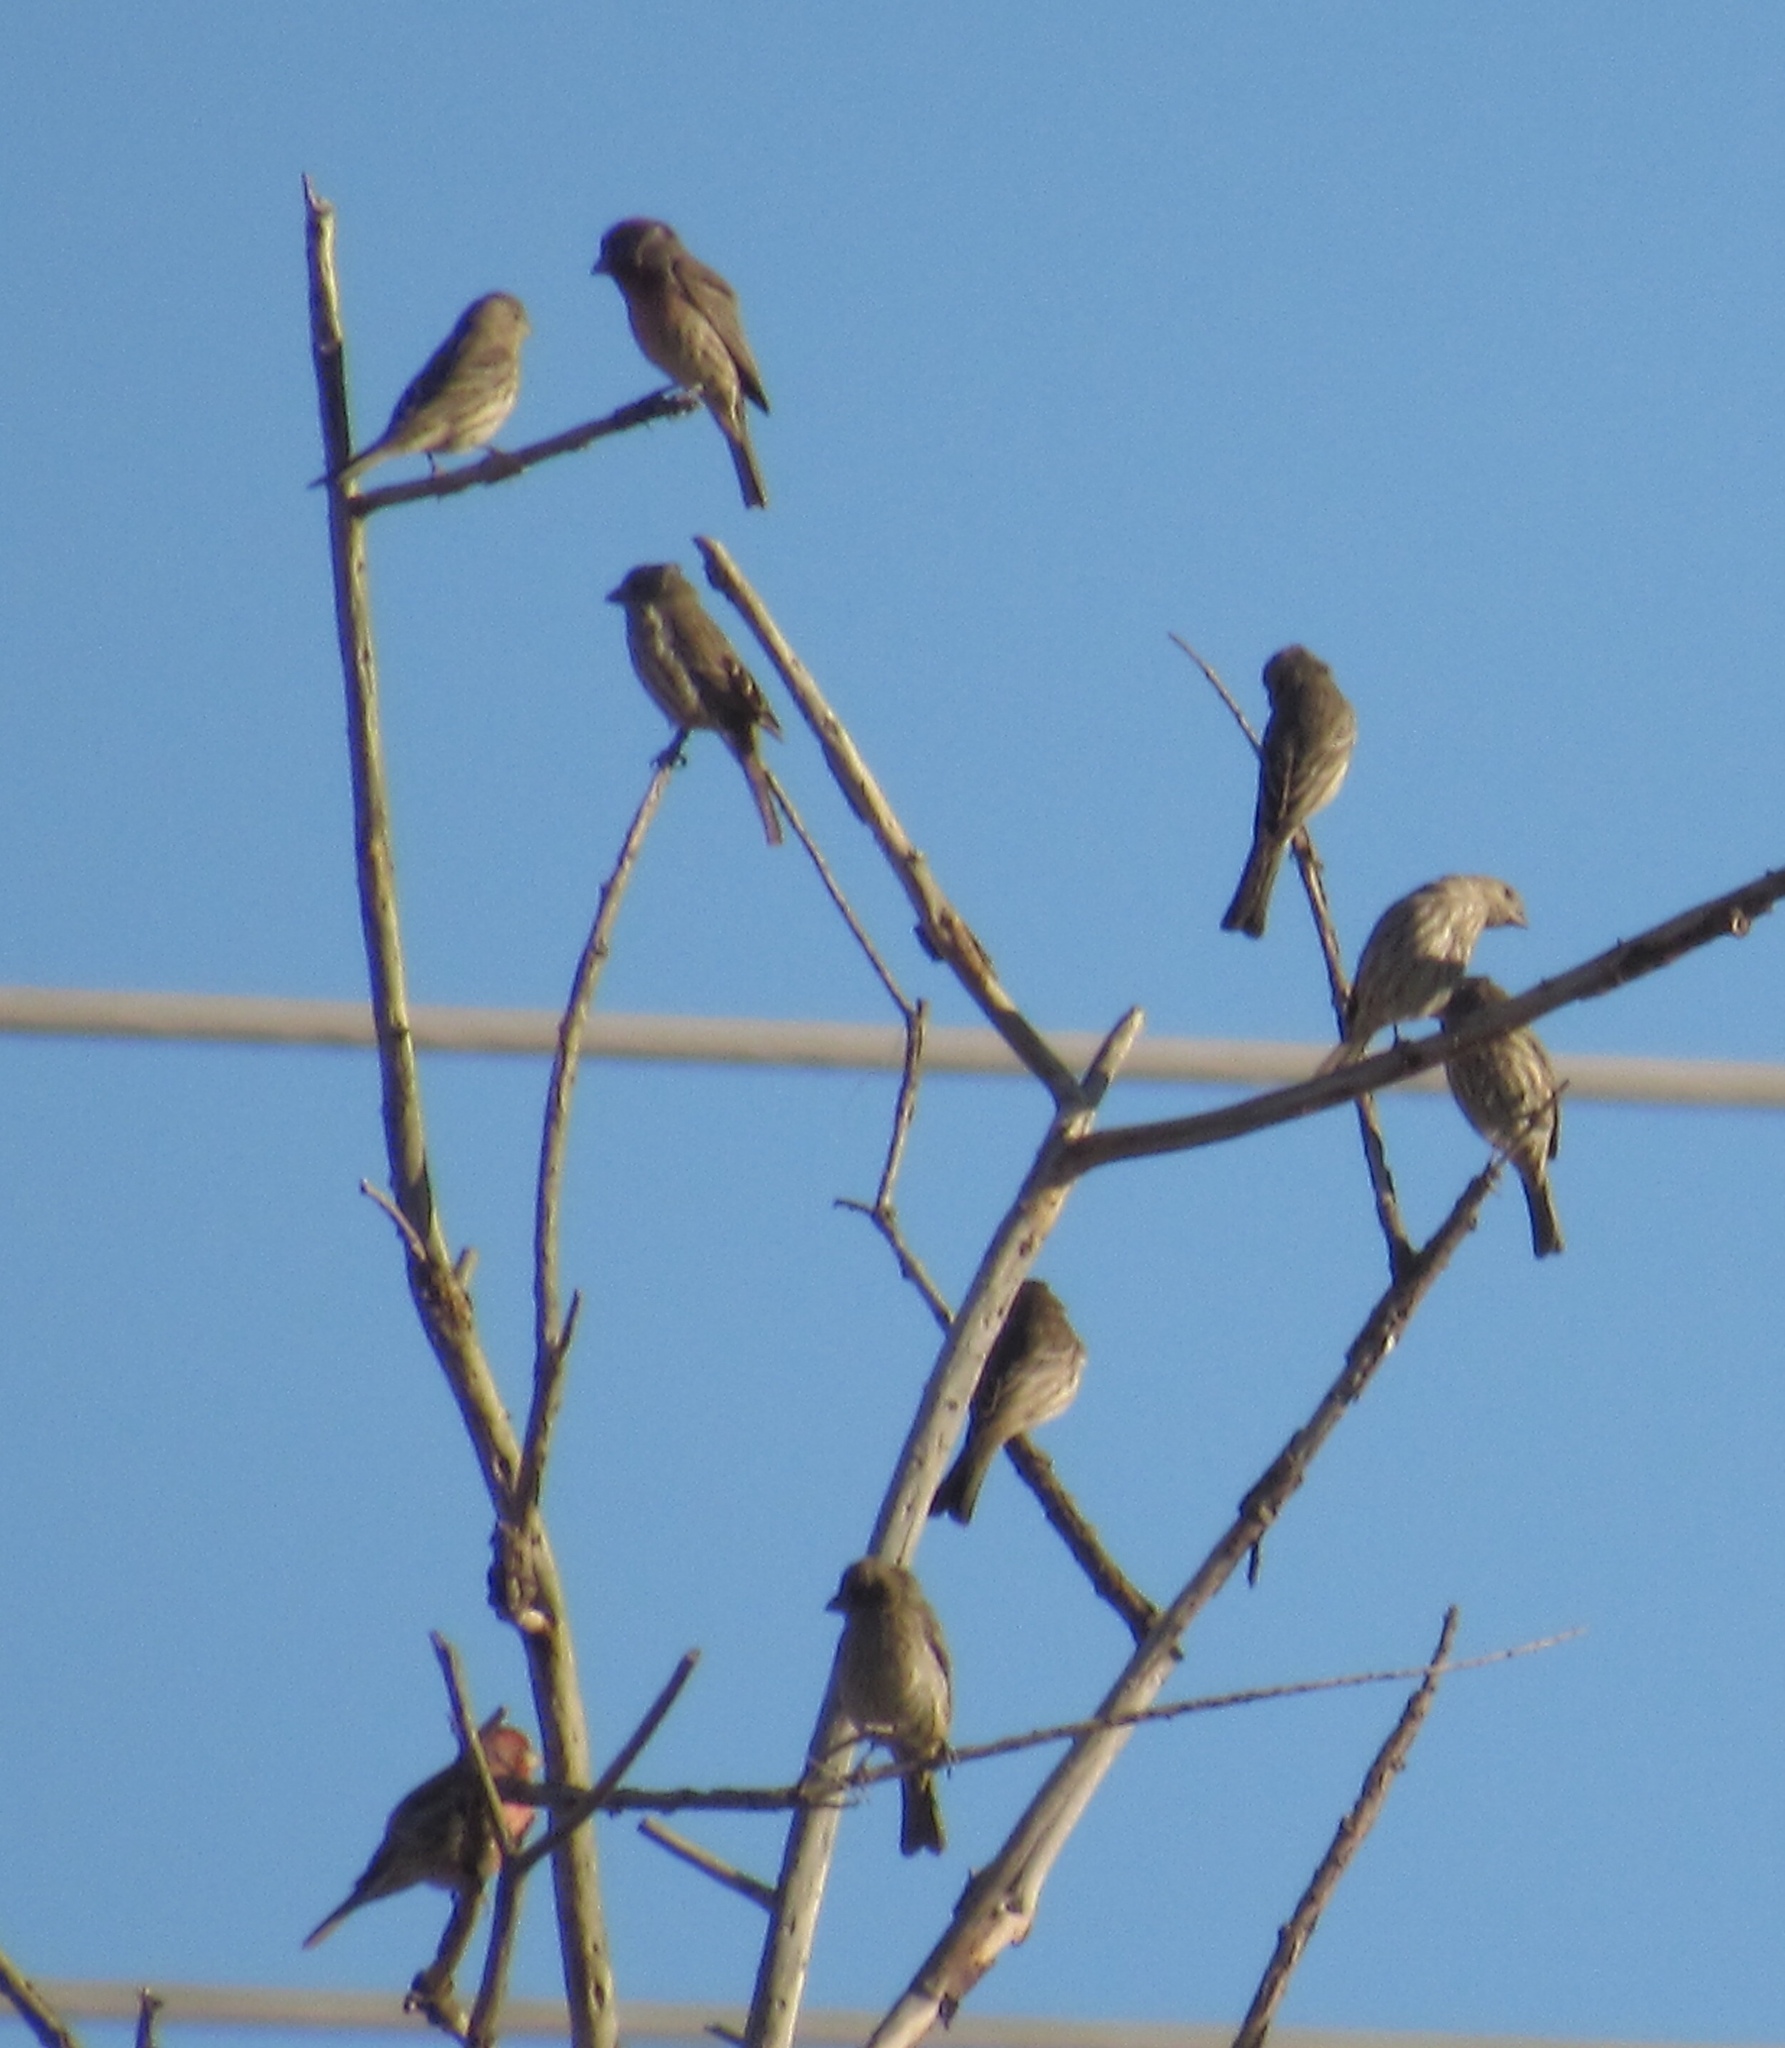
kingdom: Animalia
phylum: Chordata
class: Aves
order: Passeriformes
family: Fringillidae
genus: Haemorhous
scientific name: Haemorhous mexicanus
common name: House finch
